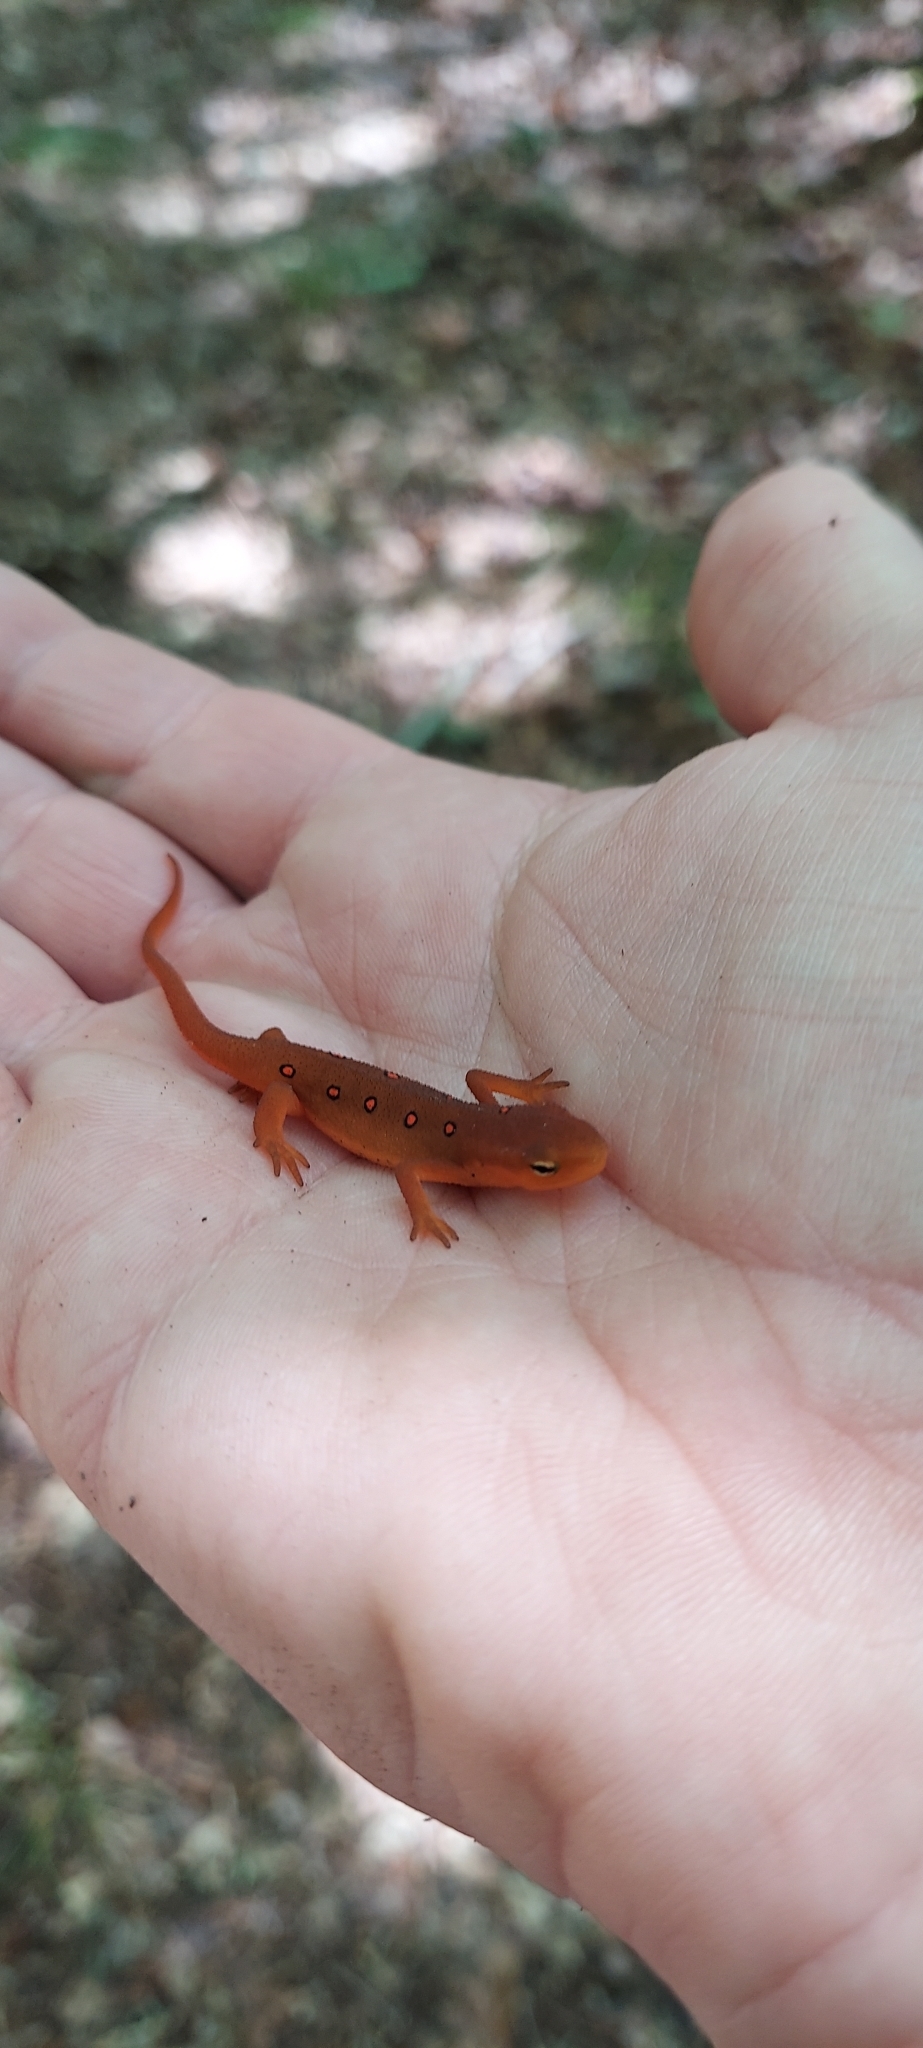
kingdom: Animalia
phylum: Chordata
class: Amphibia
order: Caudata
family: Salamandridae
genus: Notophthalmus
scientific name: Notophthalmus viridescens
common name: Eastern newt
